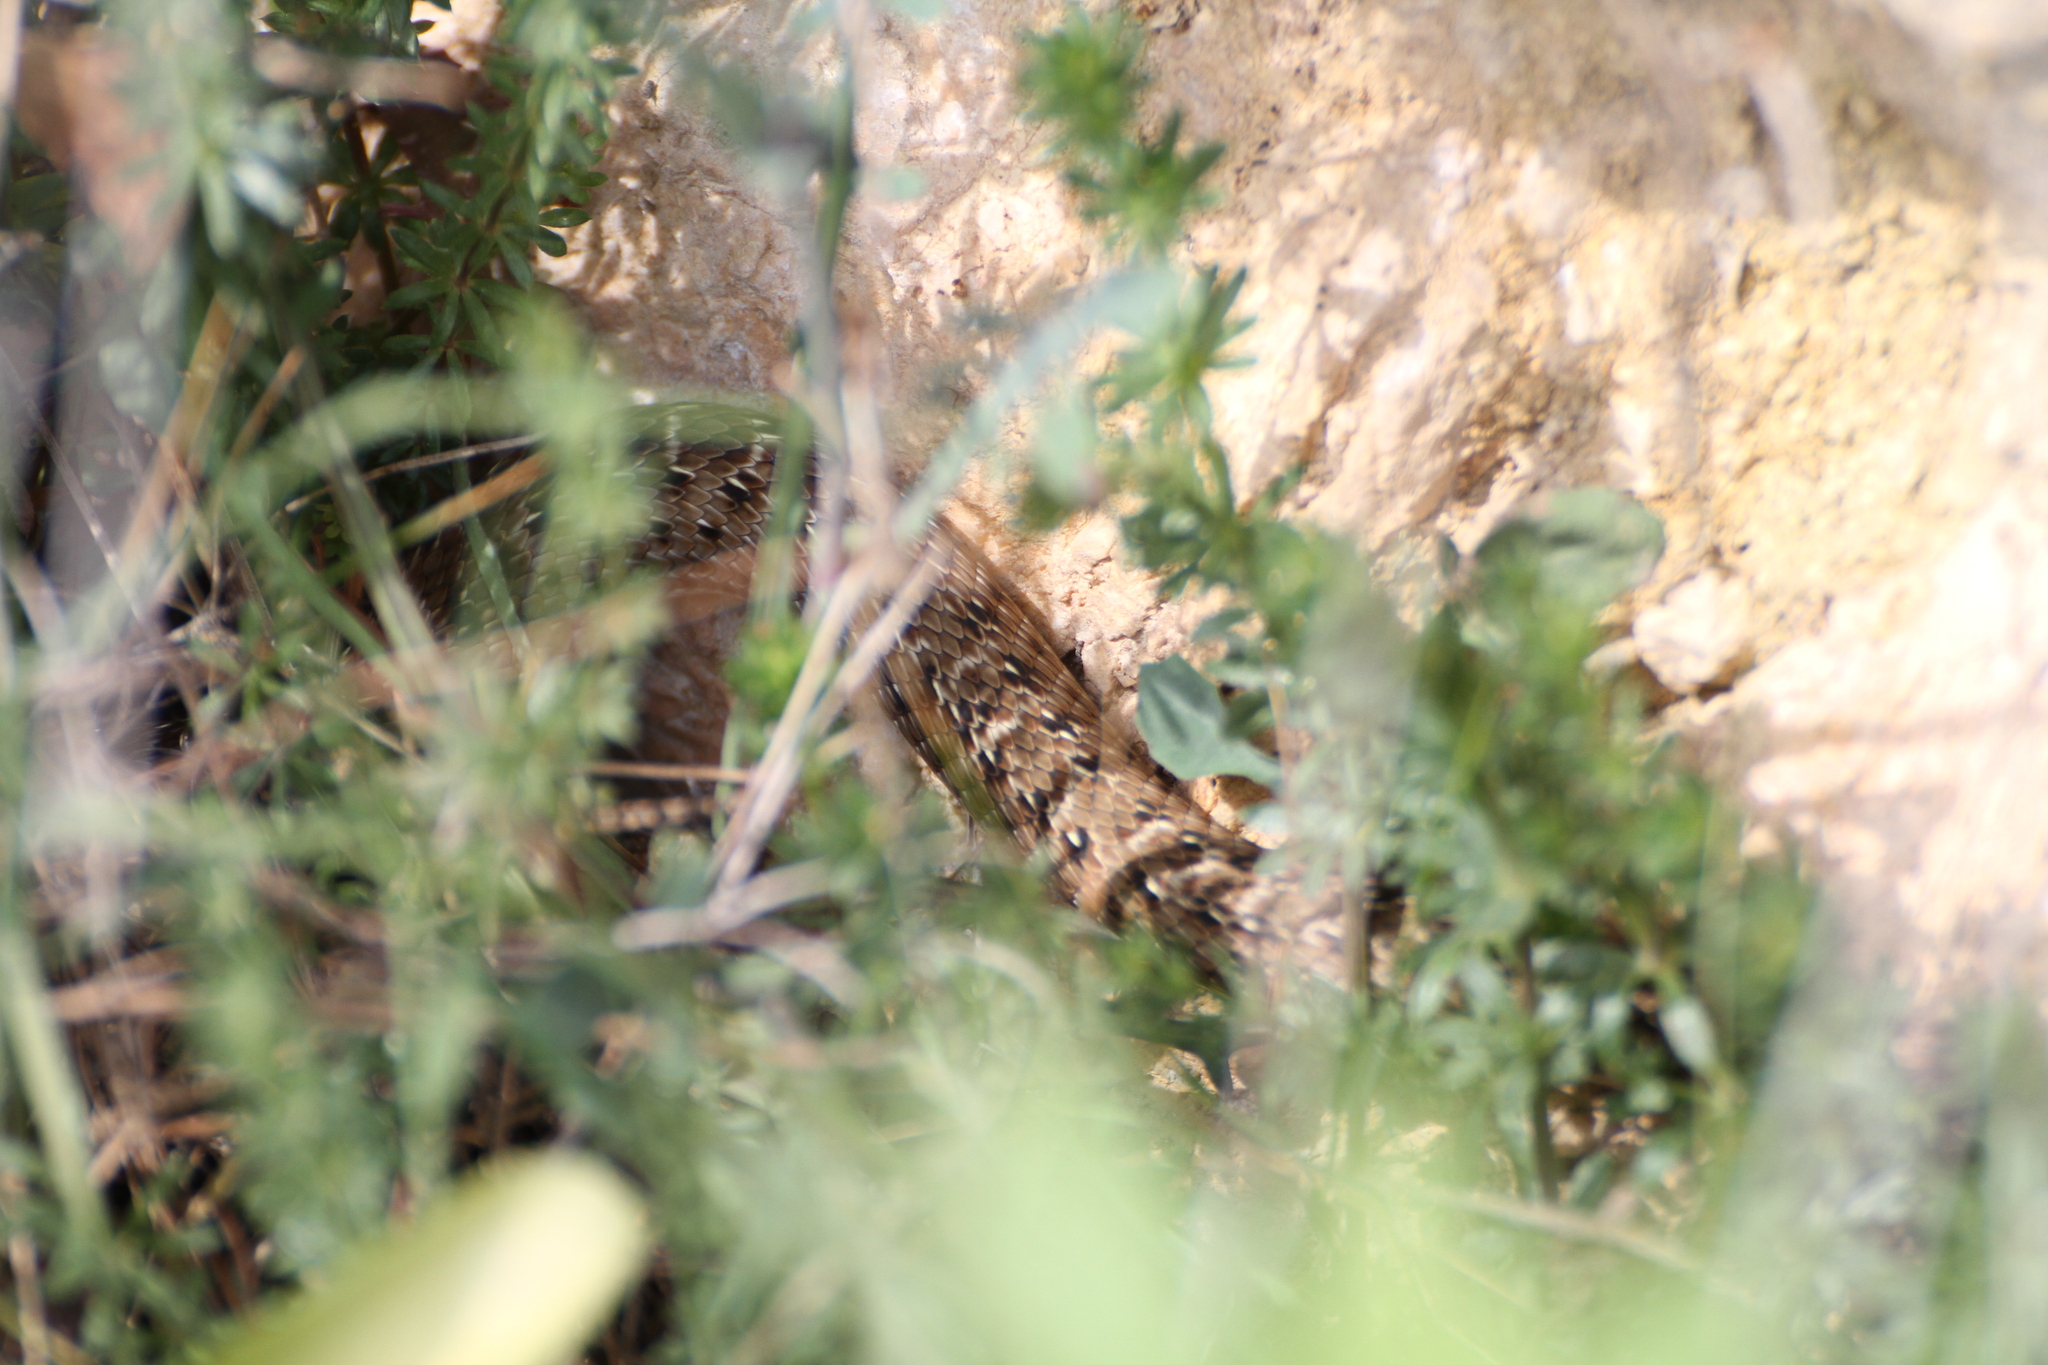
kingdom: Animalia
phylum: Chordata
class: Squamata
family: Psammophiidae
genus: Malpolon
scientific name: Malpolon monspessulanus
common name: Montpellier snake
